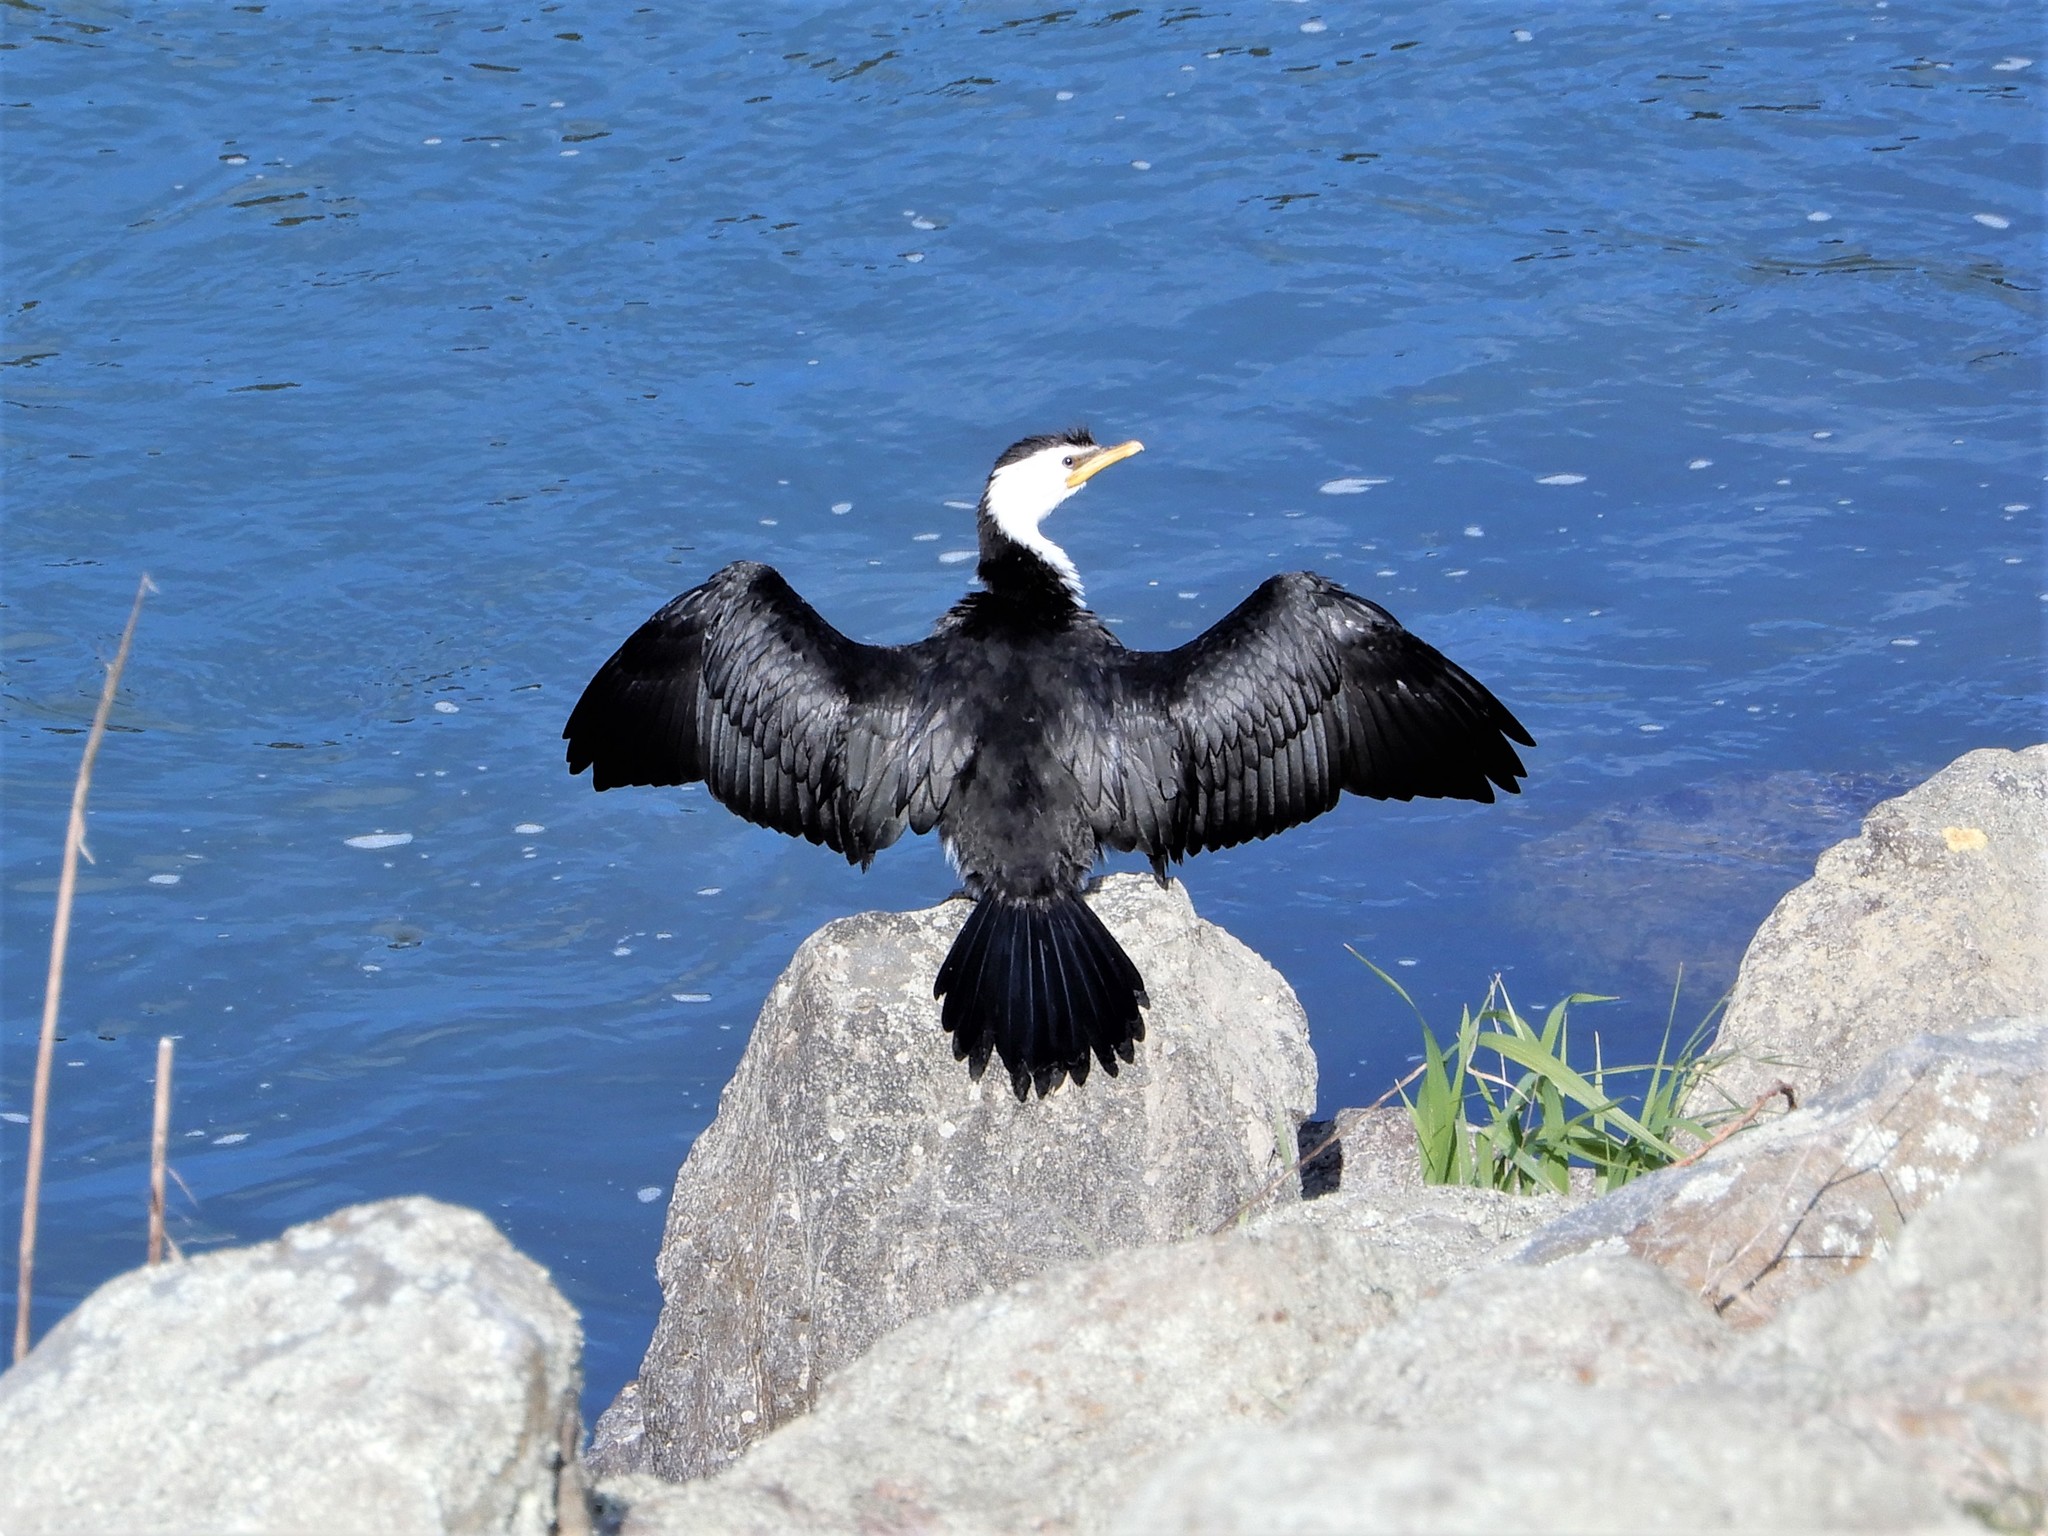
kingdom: Animalia
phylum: Chordata
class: Aves
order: Suliformes
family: Phalacrocoracidae
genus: Microcarbo
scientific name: Microcarbo melanoleucos
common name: Little pied cormorant
